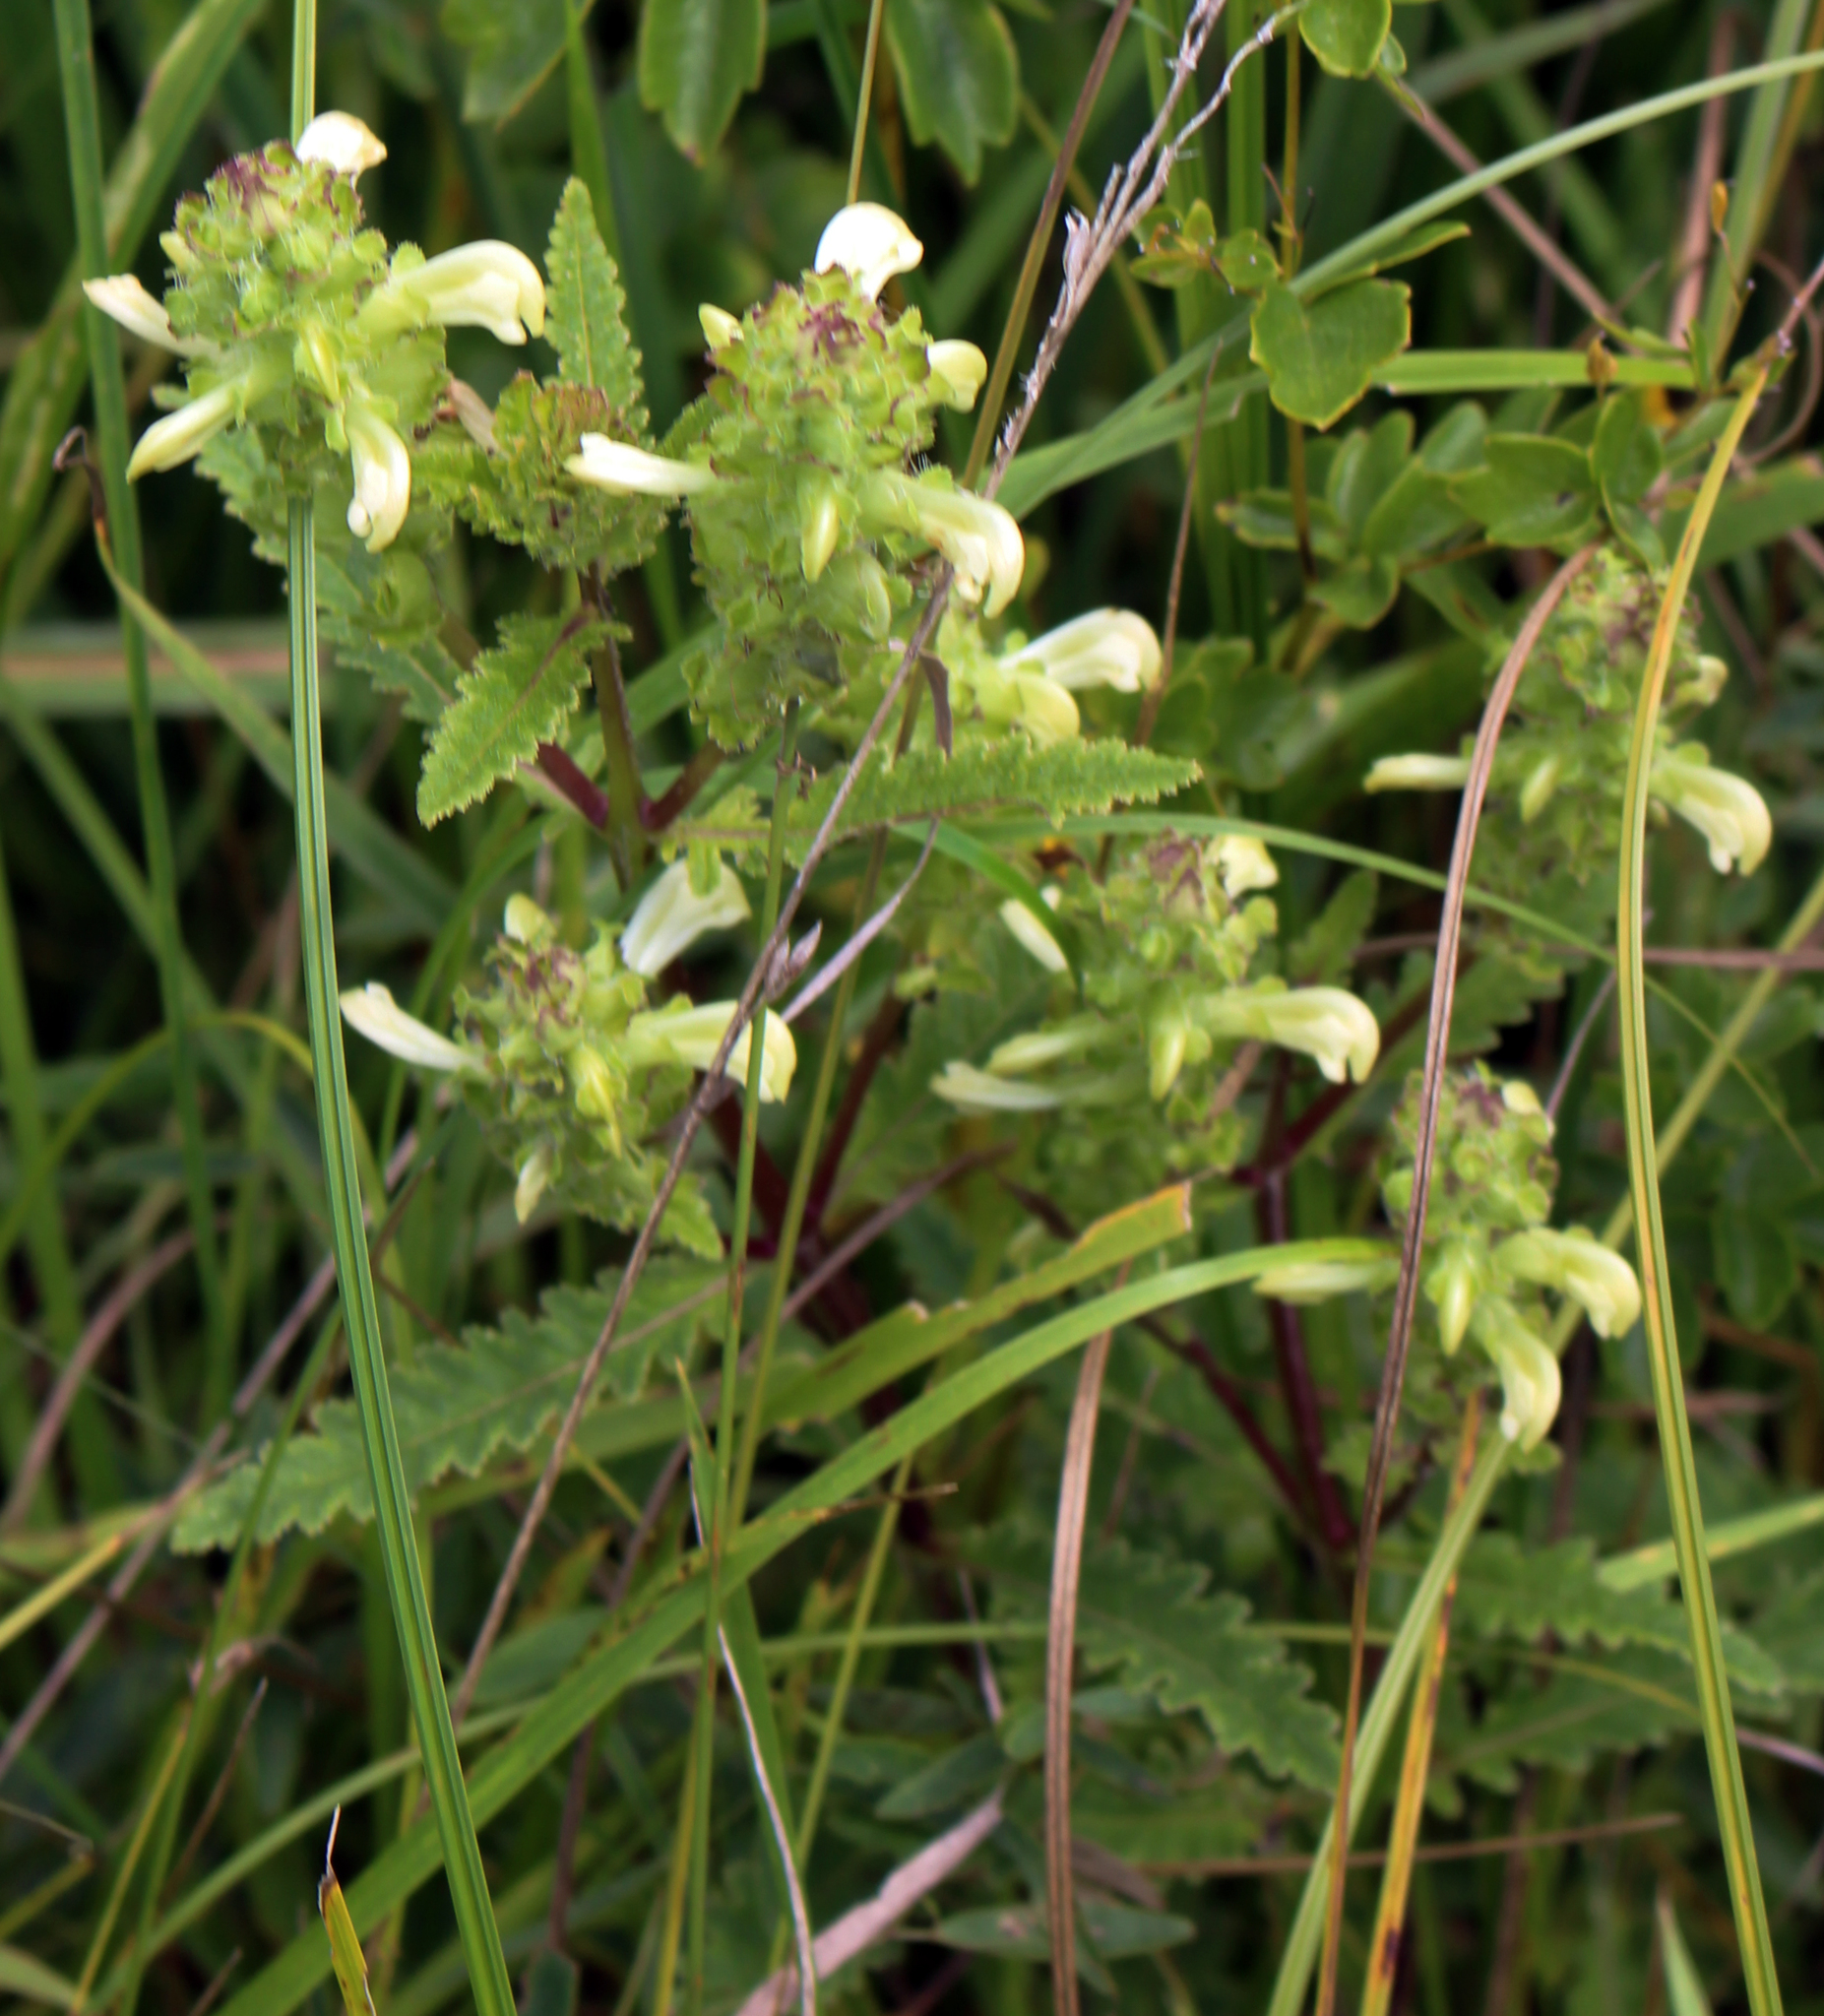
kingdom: Plantae
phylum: Tracheophyta
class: Magnoliopsida
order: Lamiales
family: Orobanchaceae
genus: Pedicularis
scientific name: Pedicularis lanceolata
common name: Swamp lousewort
